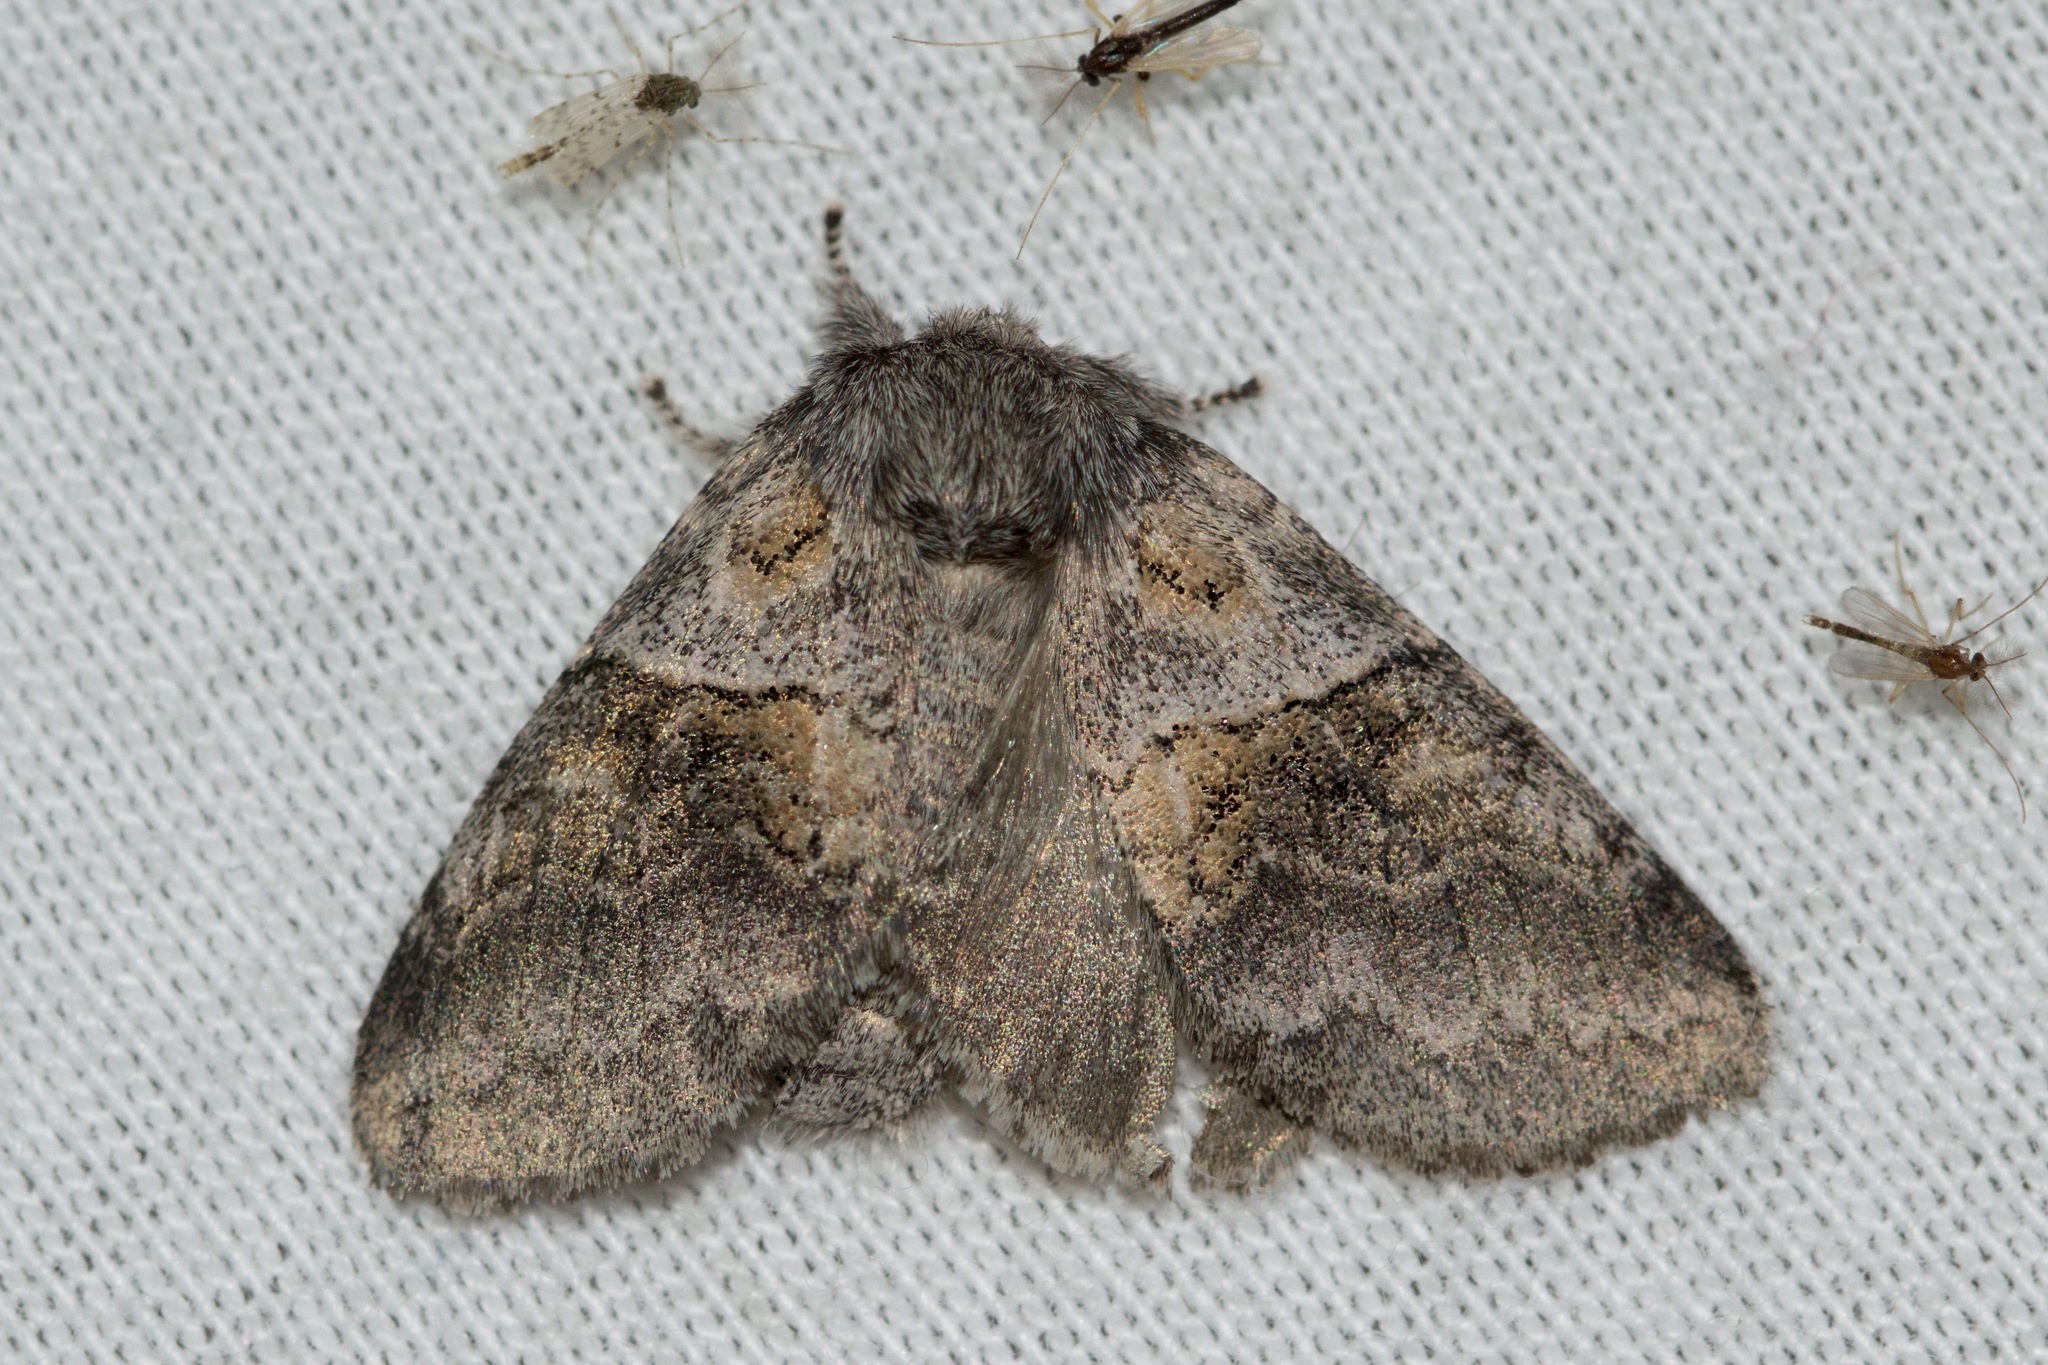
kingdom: Animalia
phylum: Arthropoda
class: Insecta
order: Lepidoptera
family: Notodontidae
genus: Gluphisia
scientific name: Gluphisia septentrionis
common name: Common gluphisia
